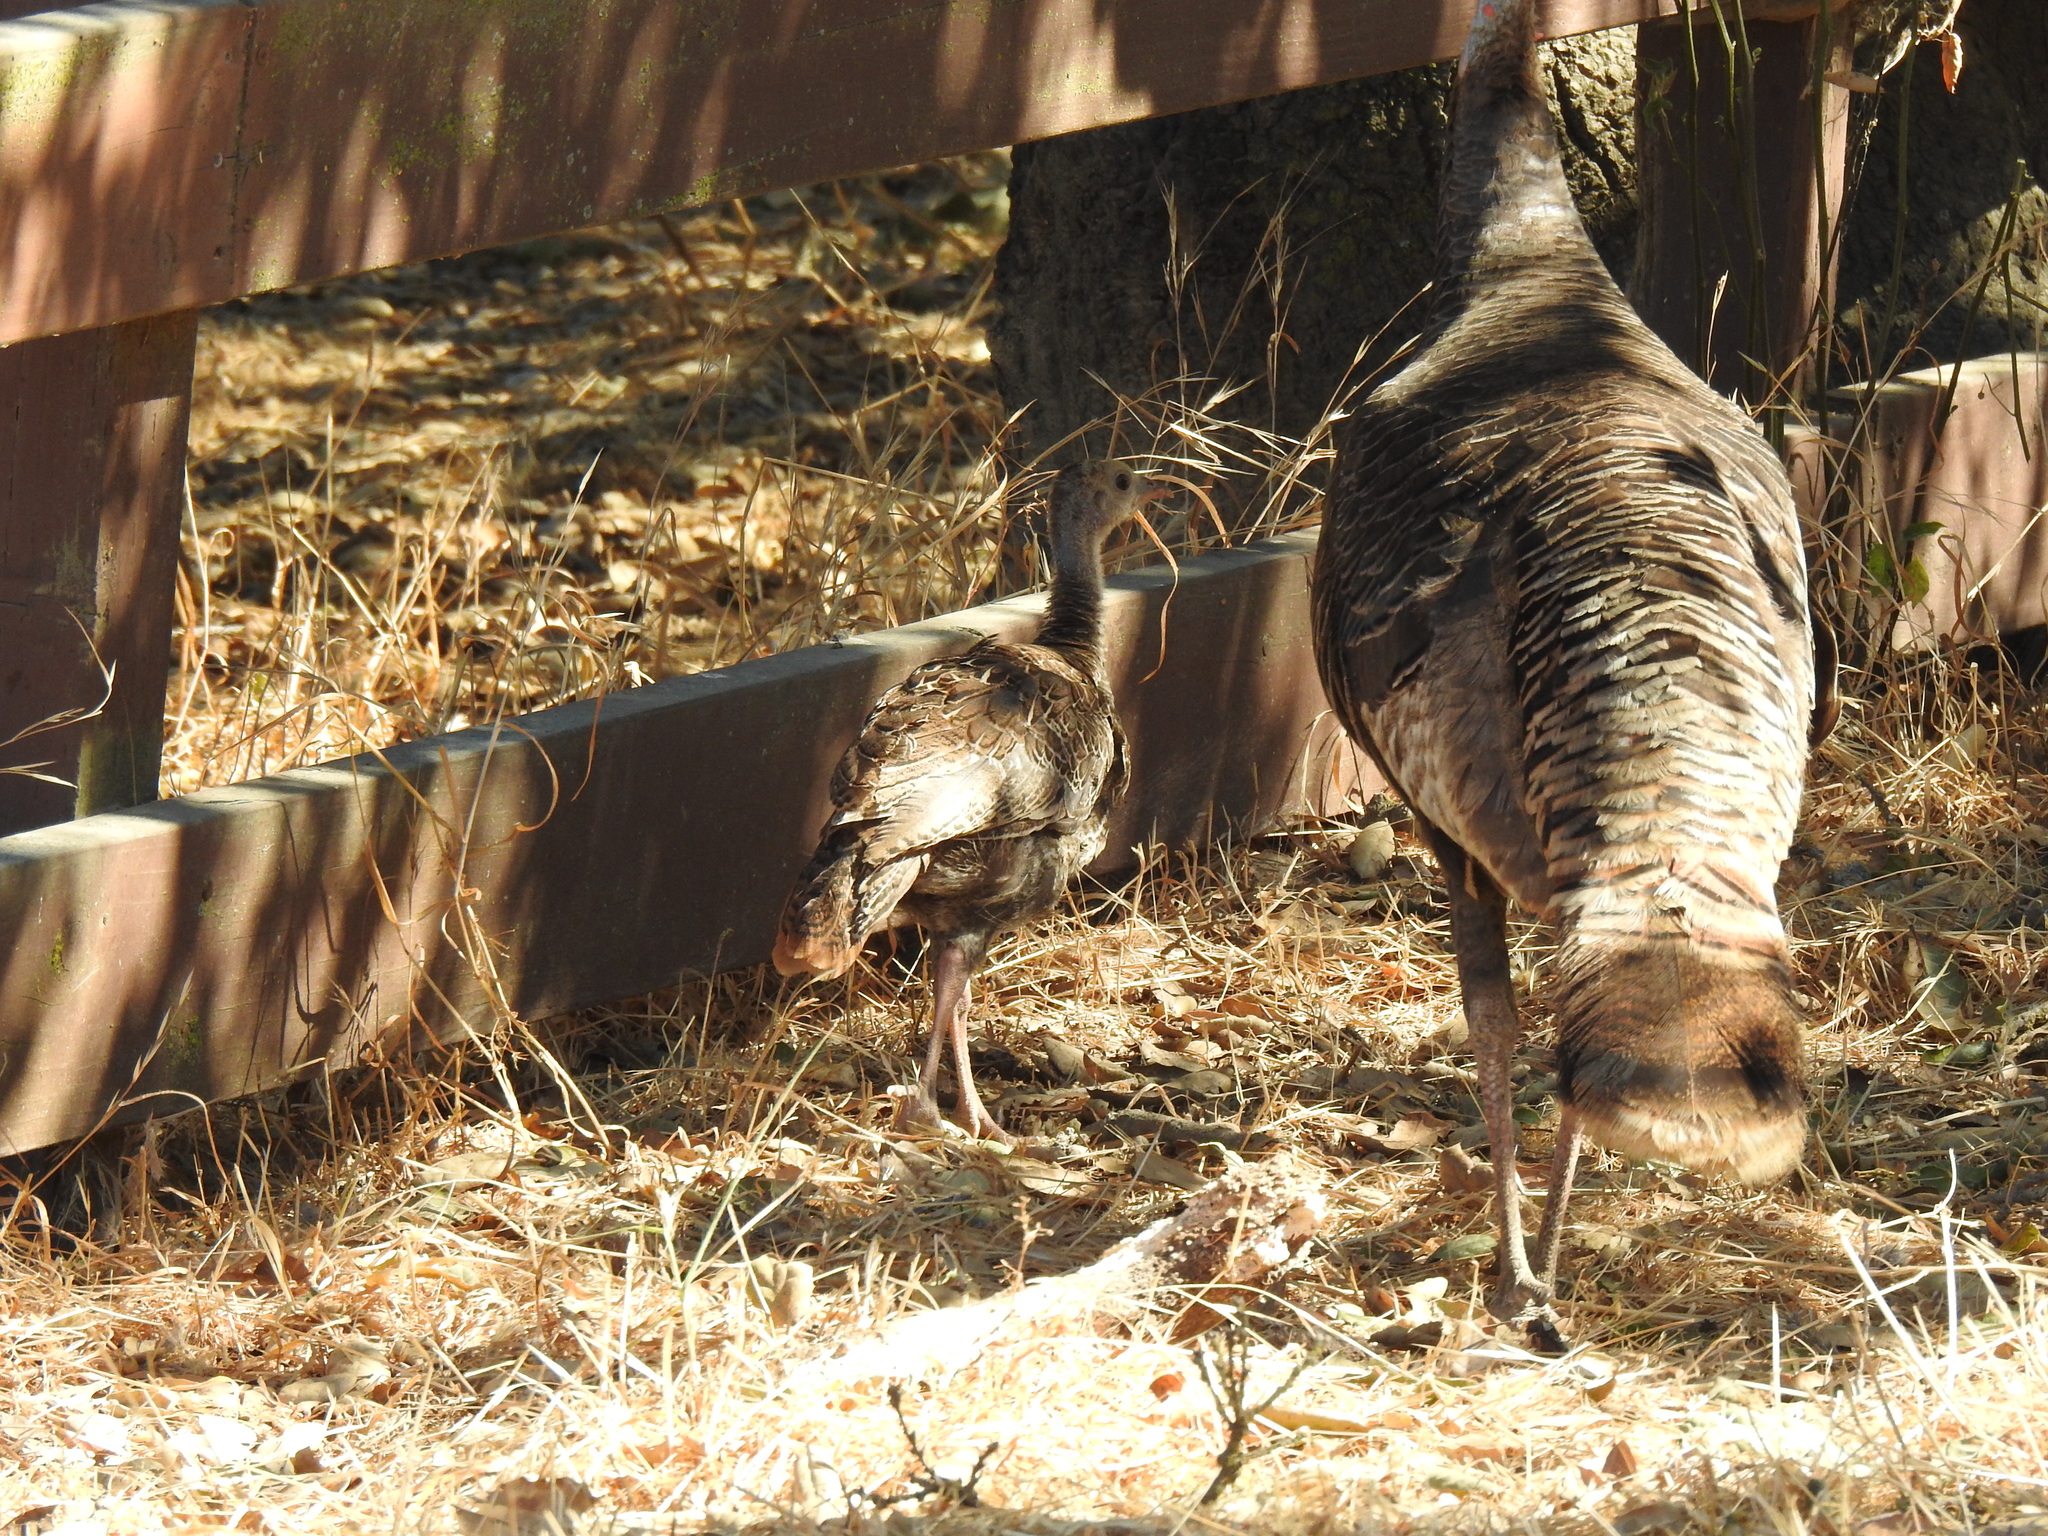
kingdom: Animalia
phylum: Chordata
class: Aves
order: Galliformes
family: Phasianidae
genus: Meleagris
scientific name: Meleagris gallopavo
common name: Wild turkey
